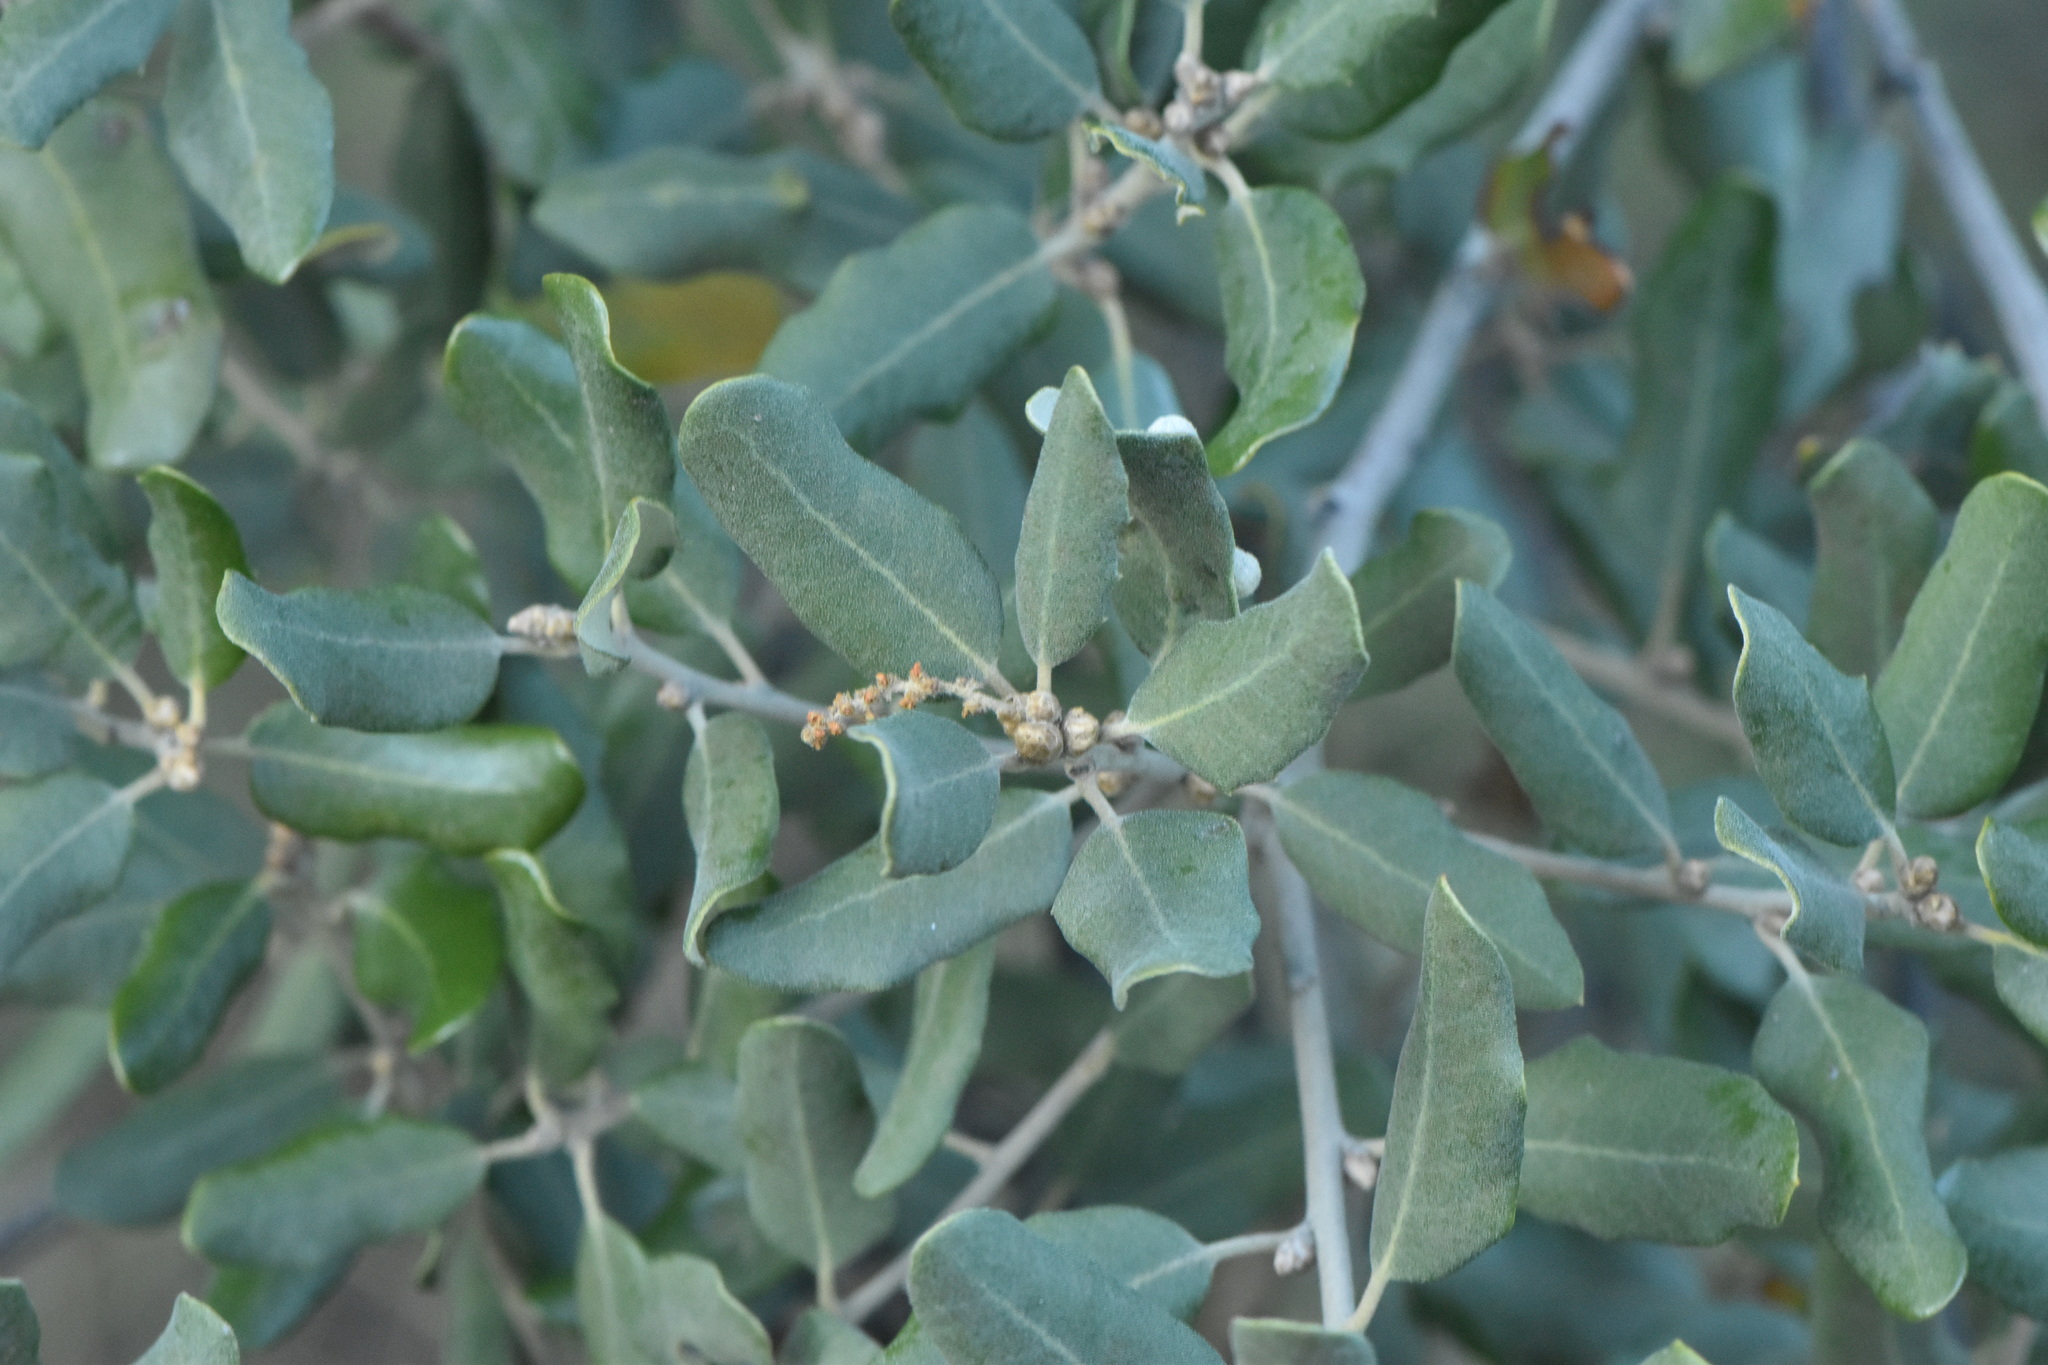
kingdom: Plantae
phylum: Tracheophyta
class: Magnoliopsida
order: Fagales
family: Fagaceae
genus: Quercus
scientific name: Quercus rotundifolia
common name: Holm oak
